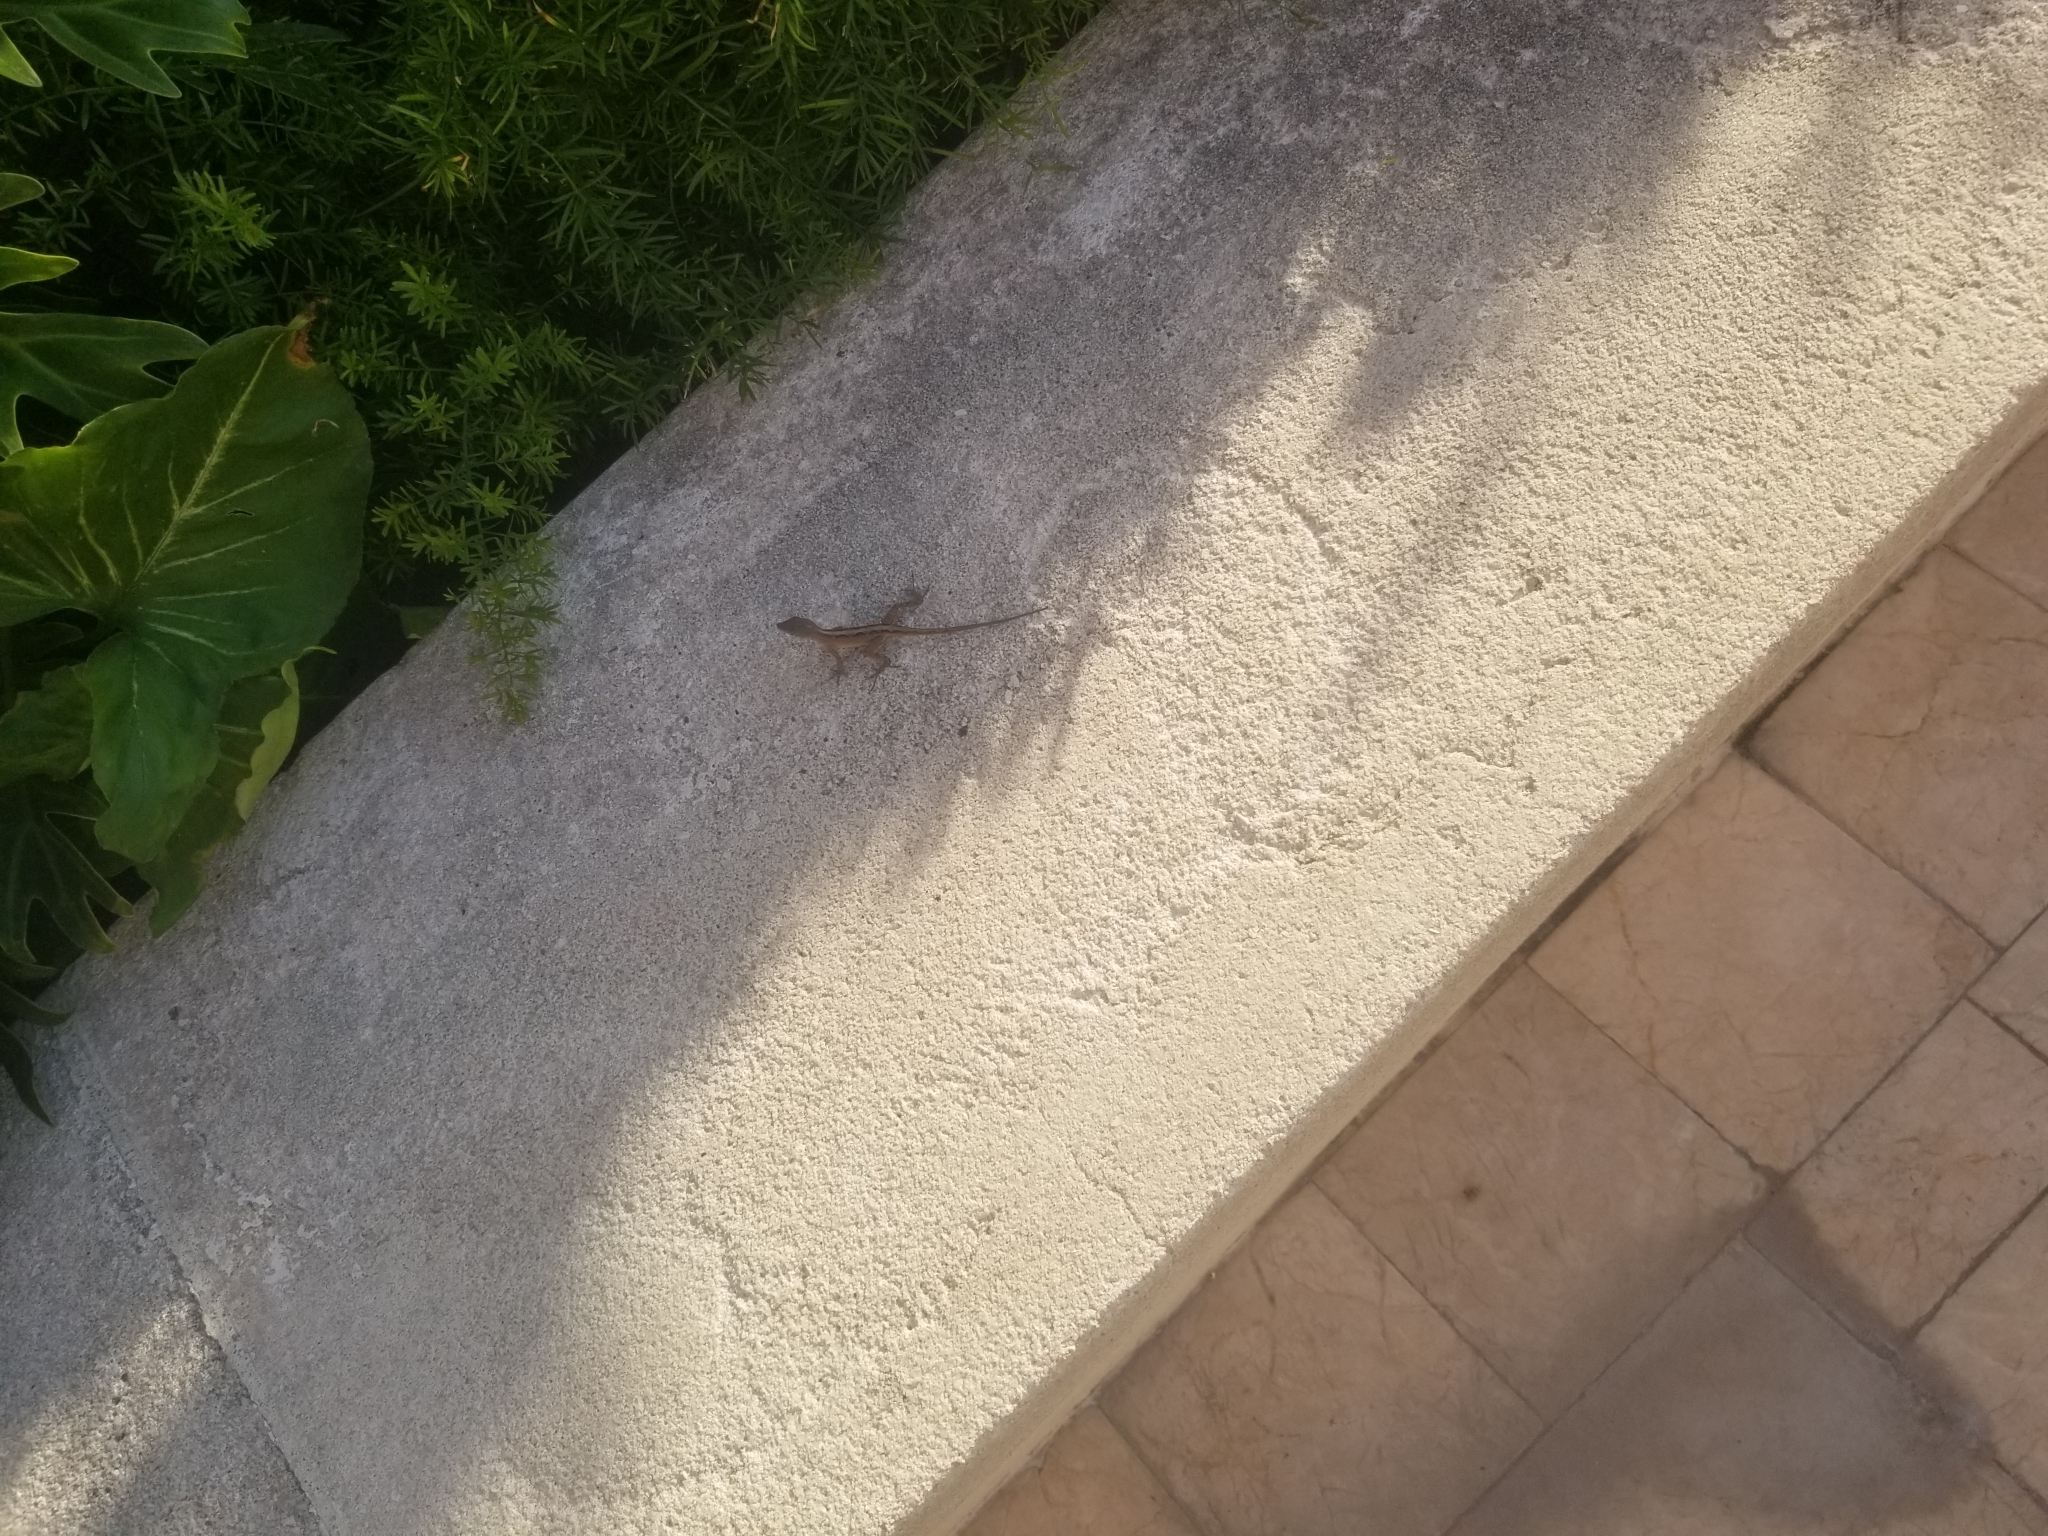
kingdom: Animalia
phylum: Chordata
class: Squamata
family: Dactyloidae
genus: Anolis
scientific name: Anolis sagrei
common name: Brown anole
